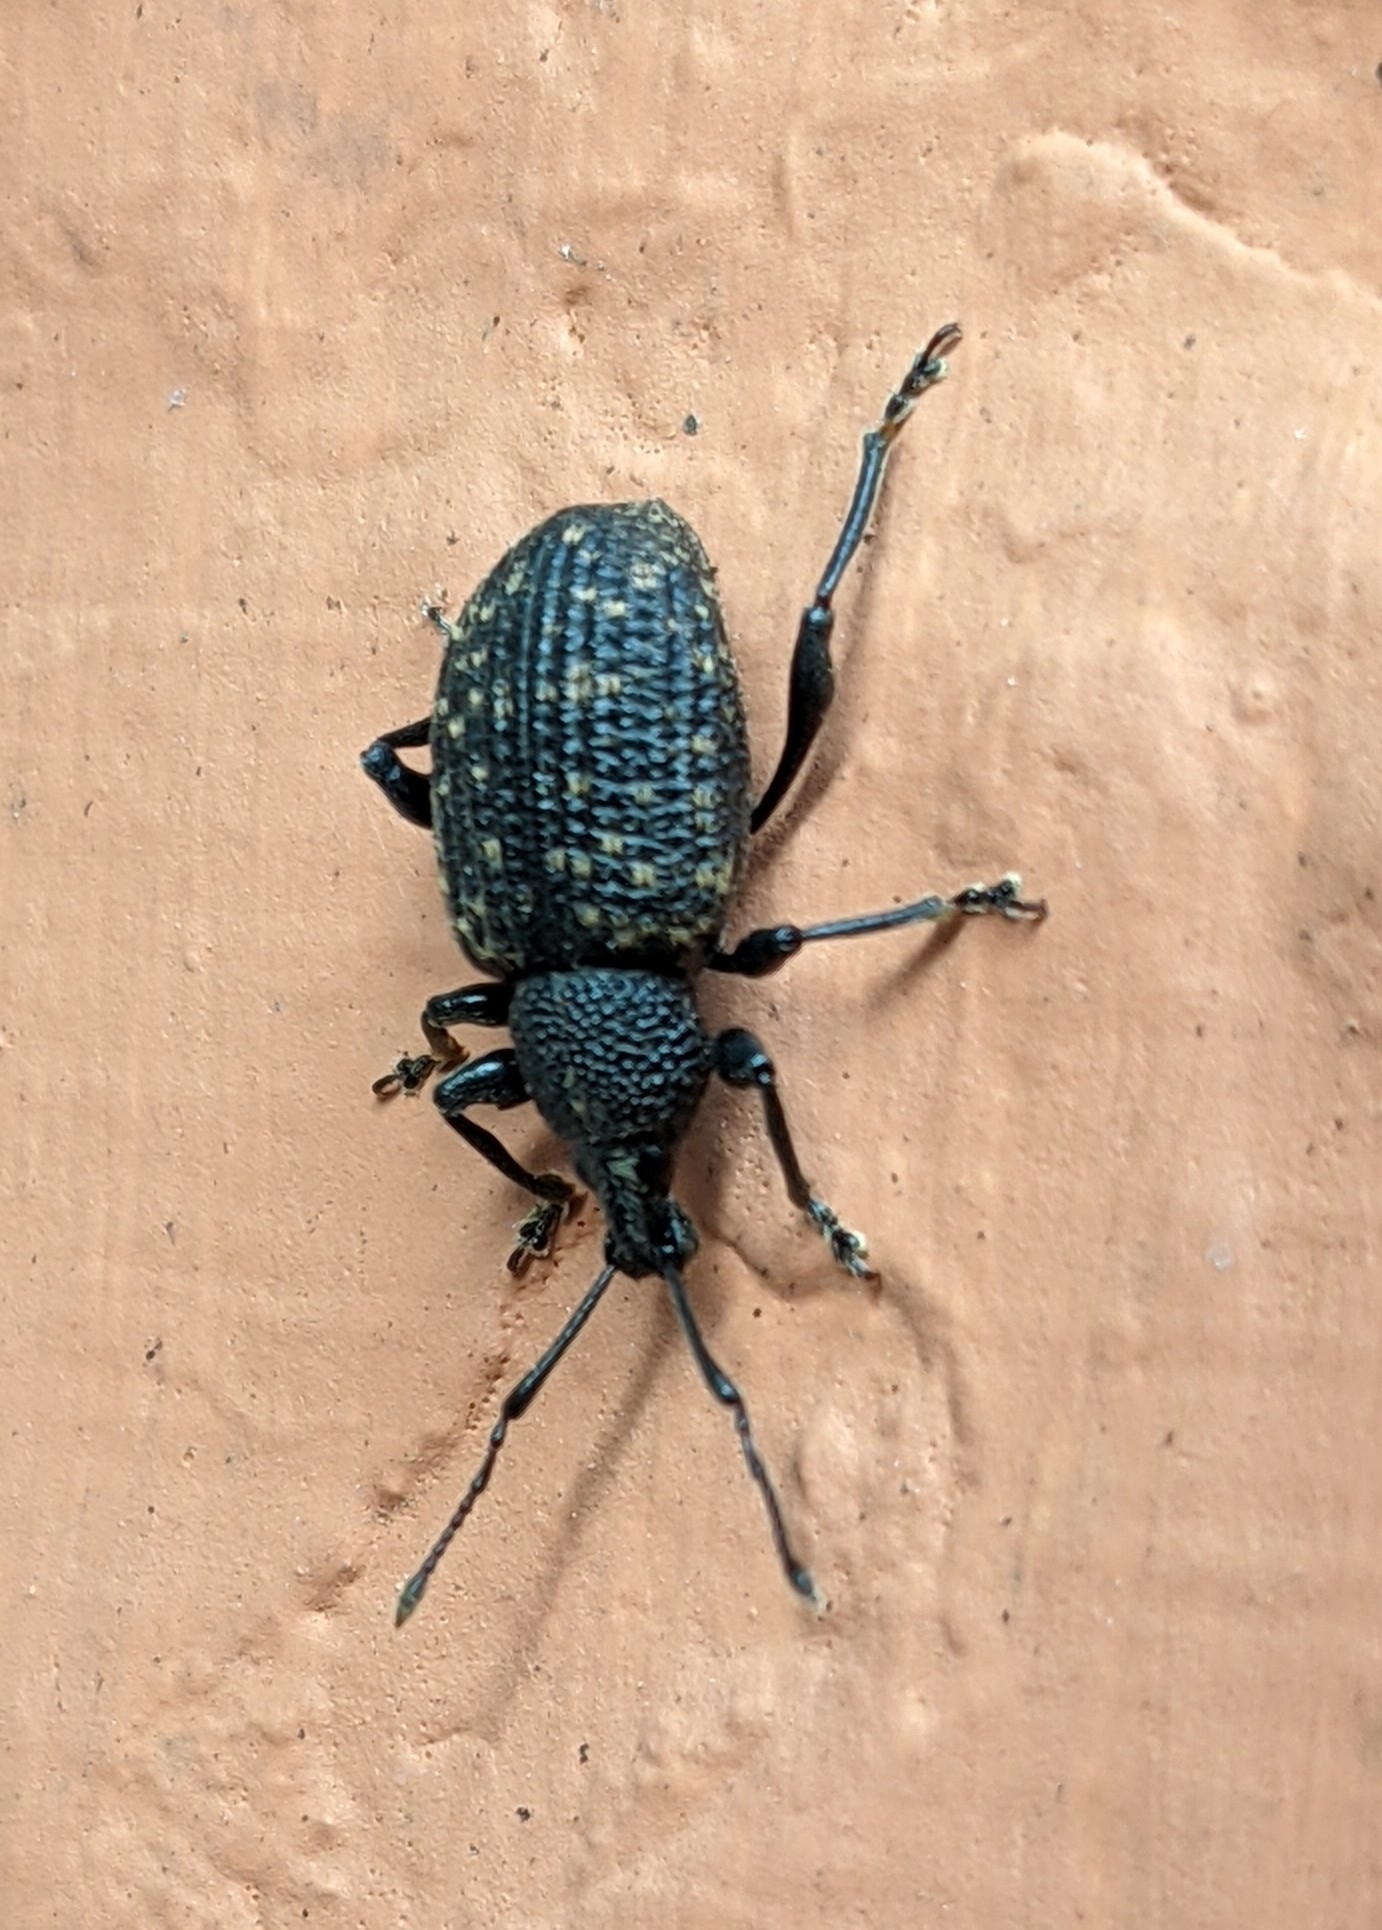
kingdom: Animalia
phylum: Arthropoda
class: Insecta
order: Coleoptera
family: Curculionidae
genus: Otiorhynchus
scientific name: Otiorhynchus sulcatus
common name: Black vine weevil
